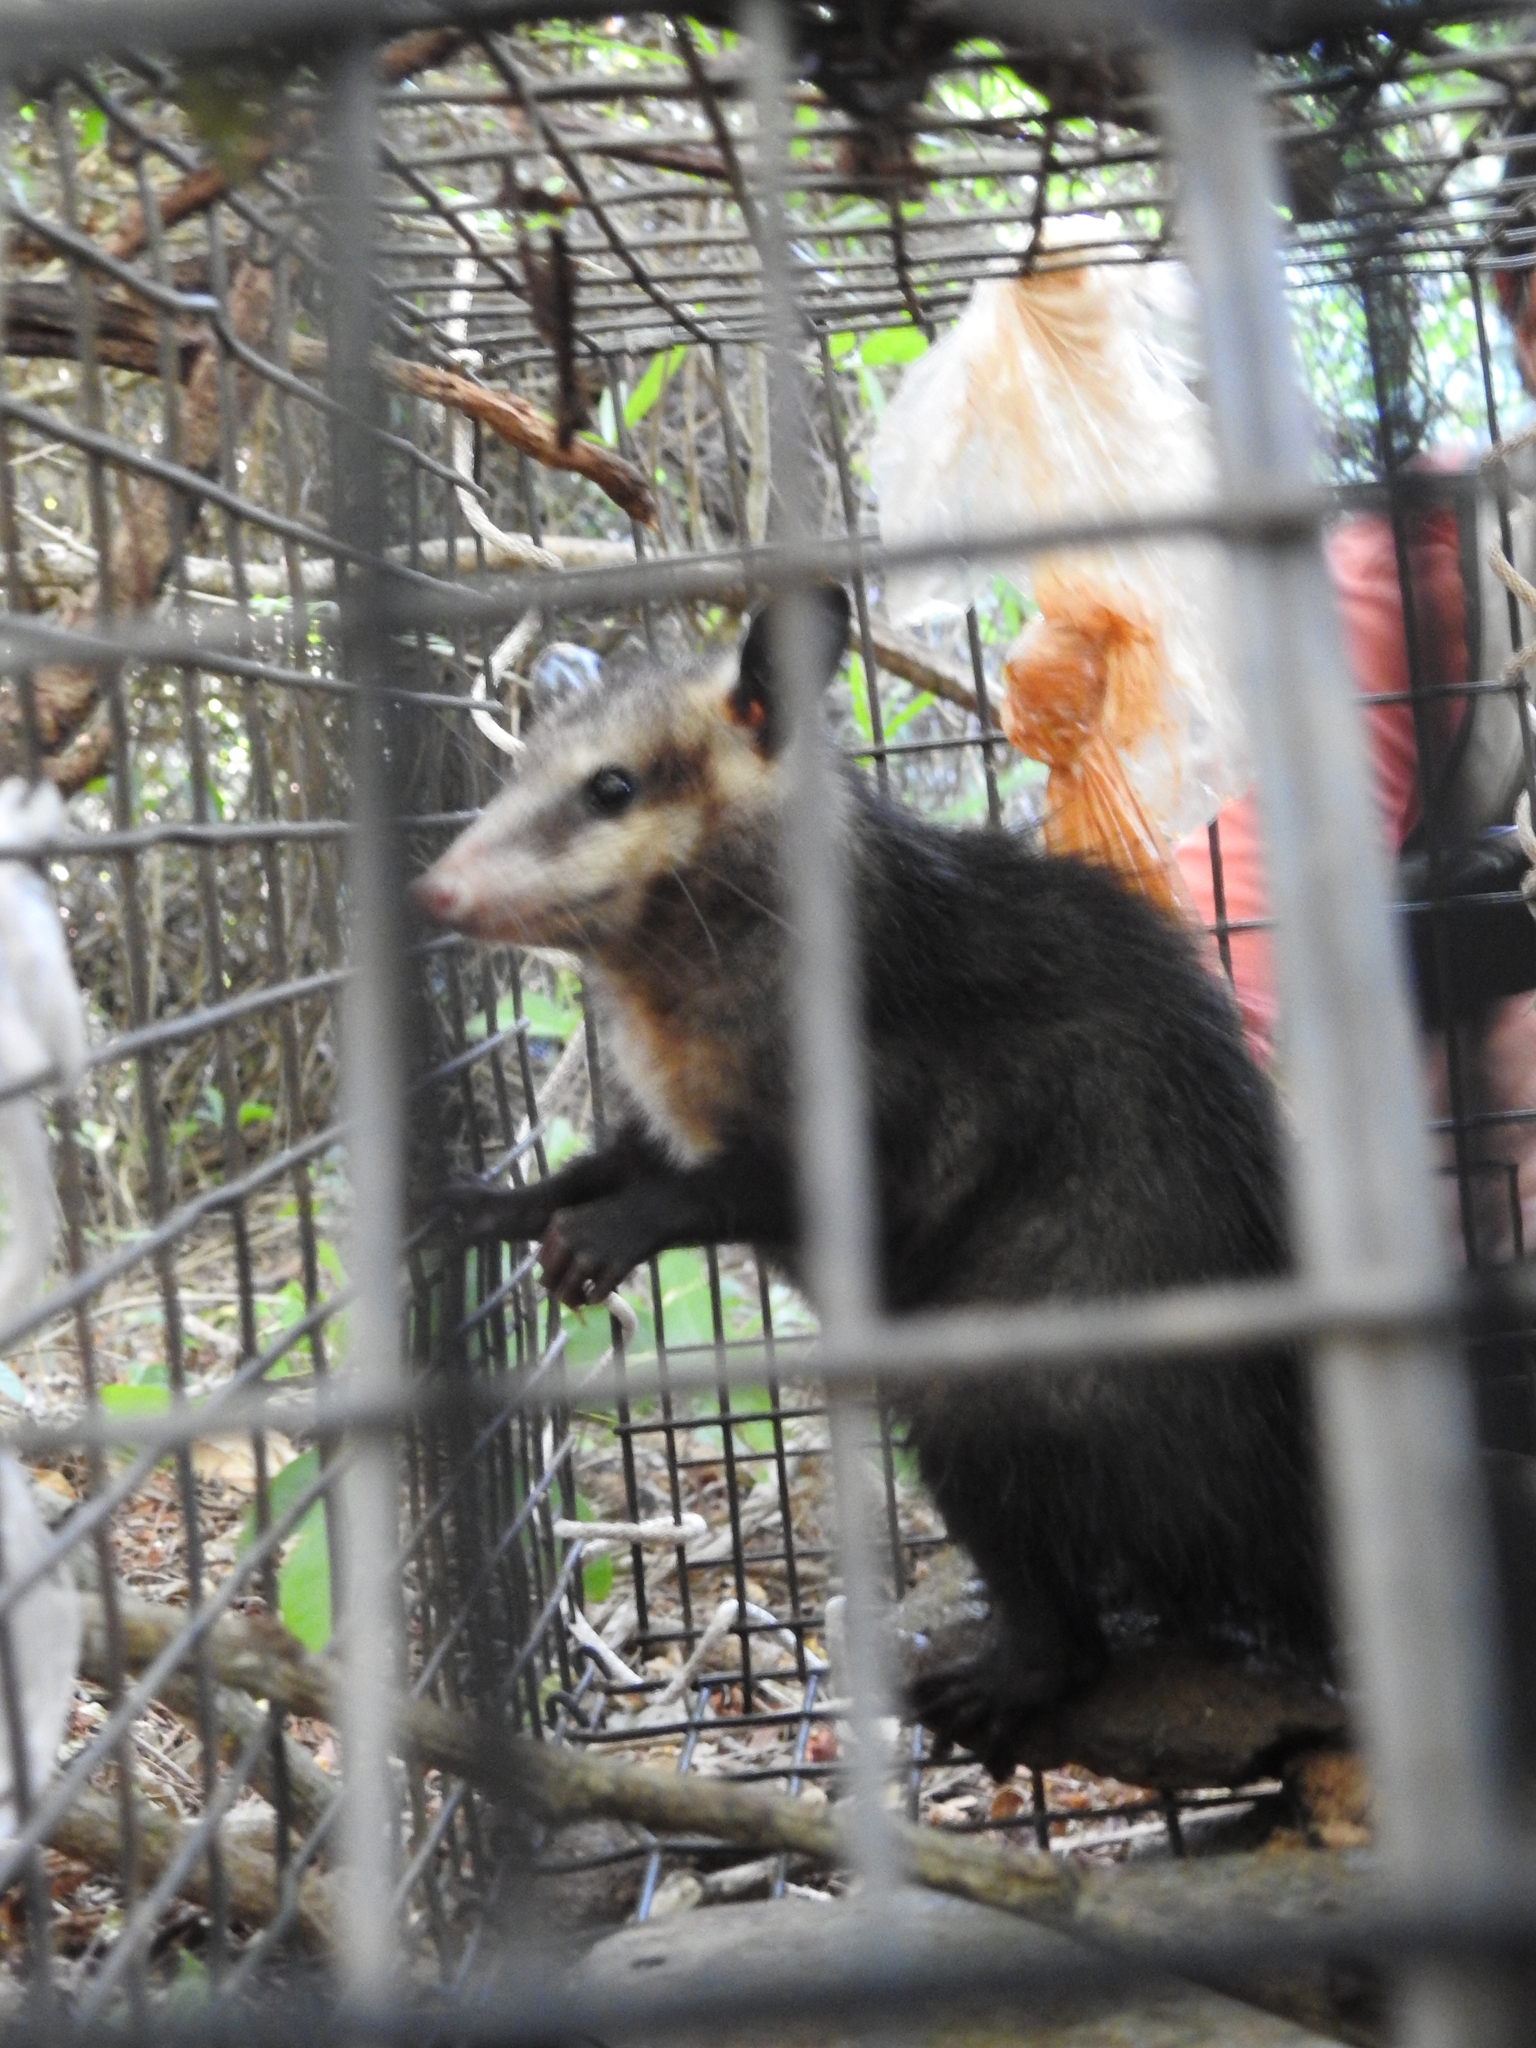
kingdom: Animalia
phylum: Chordata
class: Mammalia
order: Didelphimorphia
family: Didelphidae
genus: Didelphis
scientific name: Didelphis virginiana
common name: Virginia opossum
